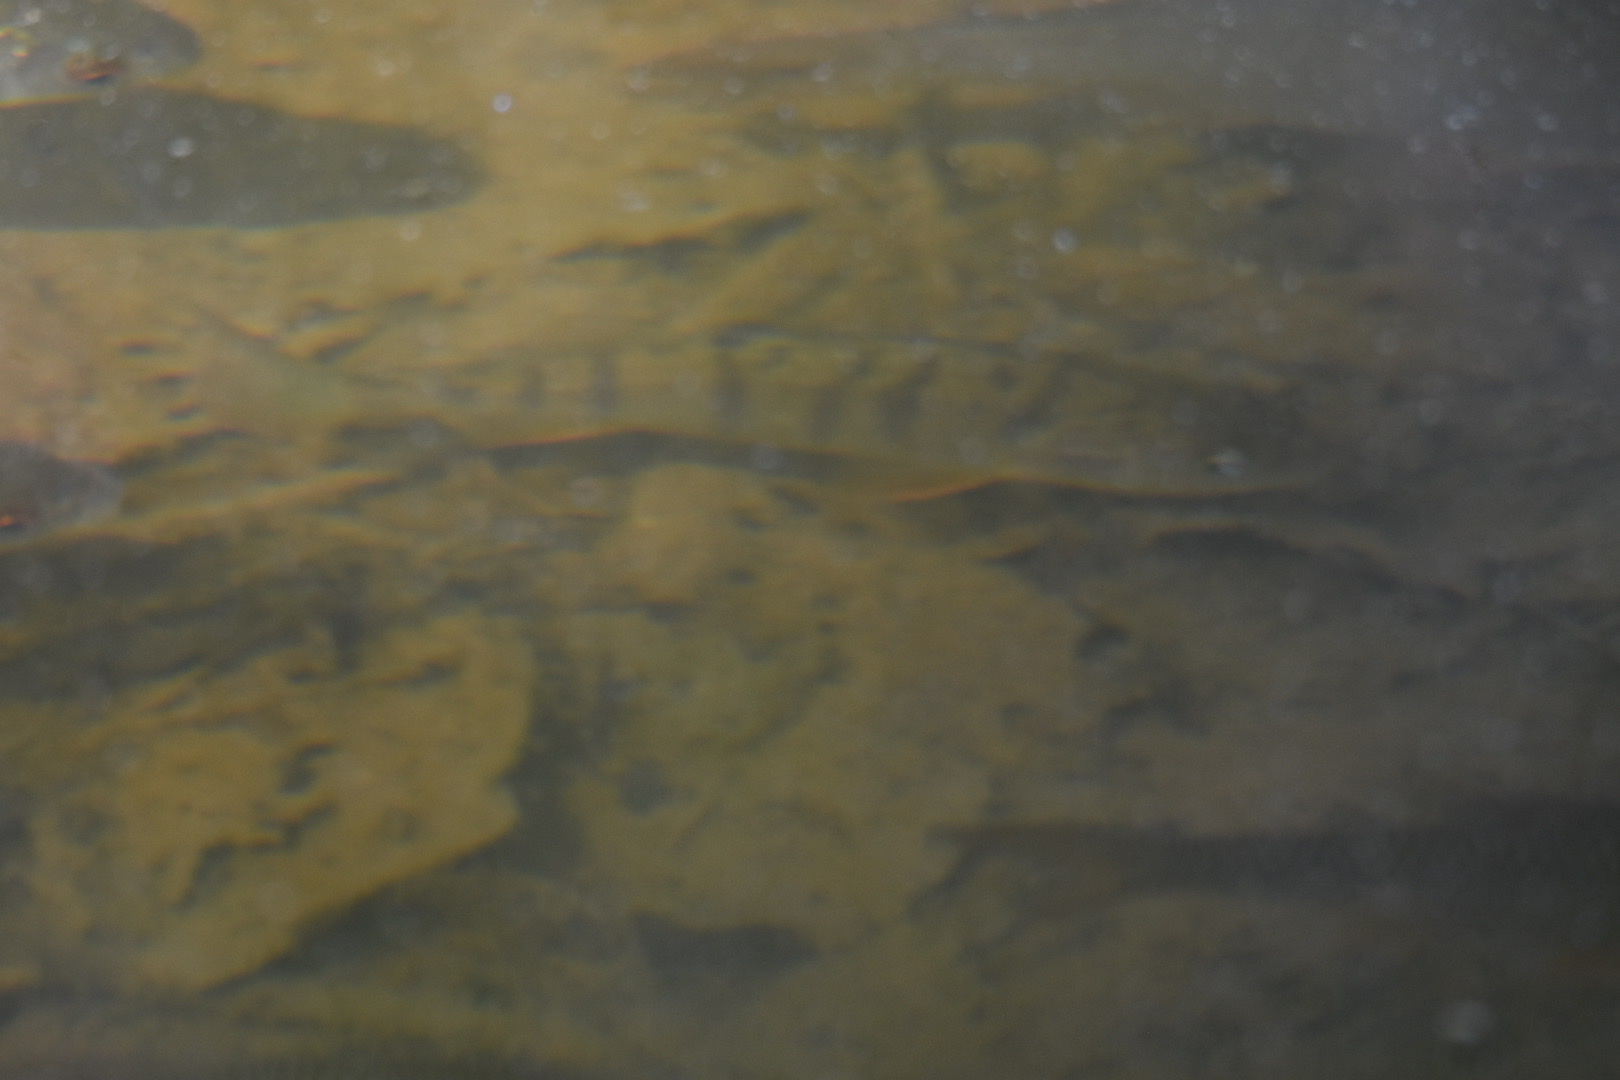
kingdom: Animalia
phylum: Chordata
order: Perciformes
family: Percidae
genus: Perca
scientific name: Perca fluviatilis
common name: Perch
